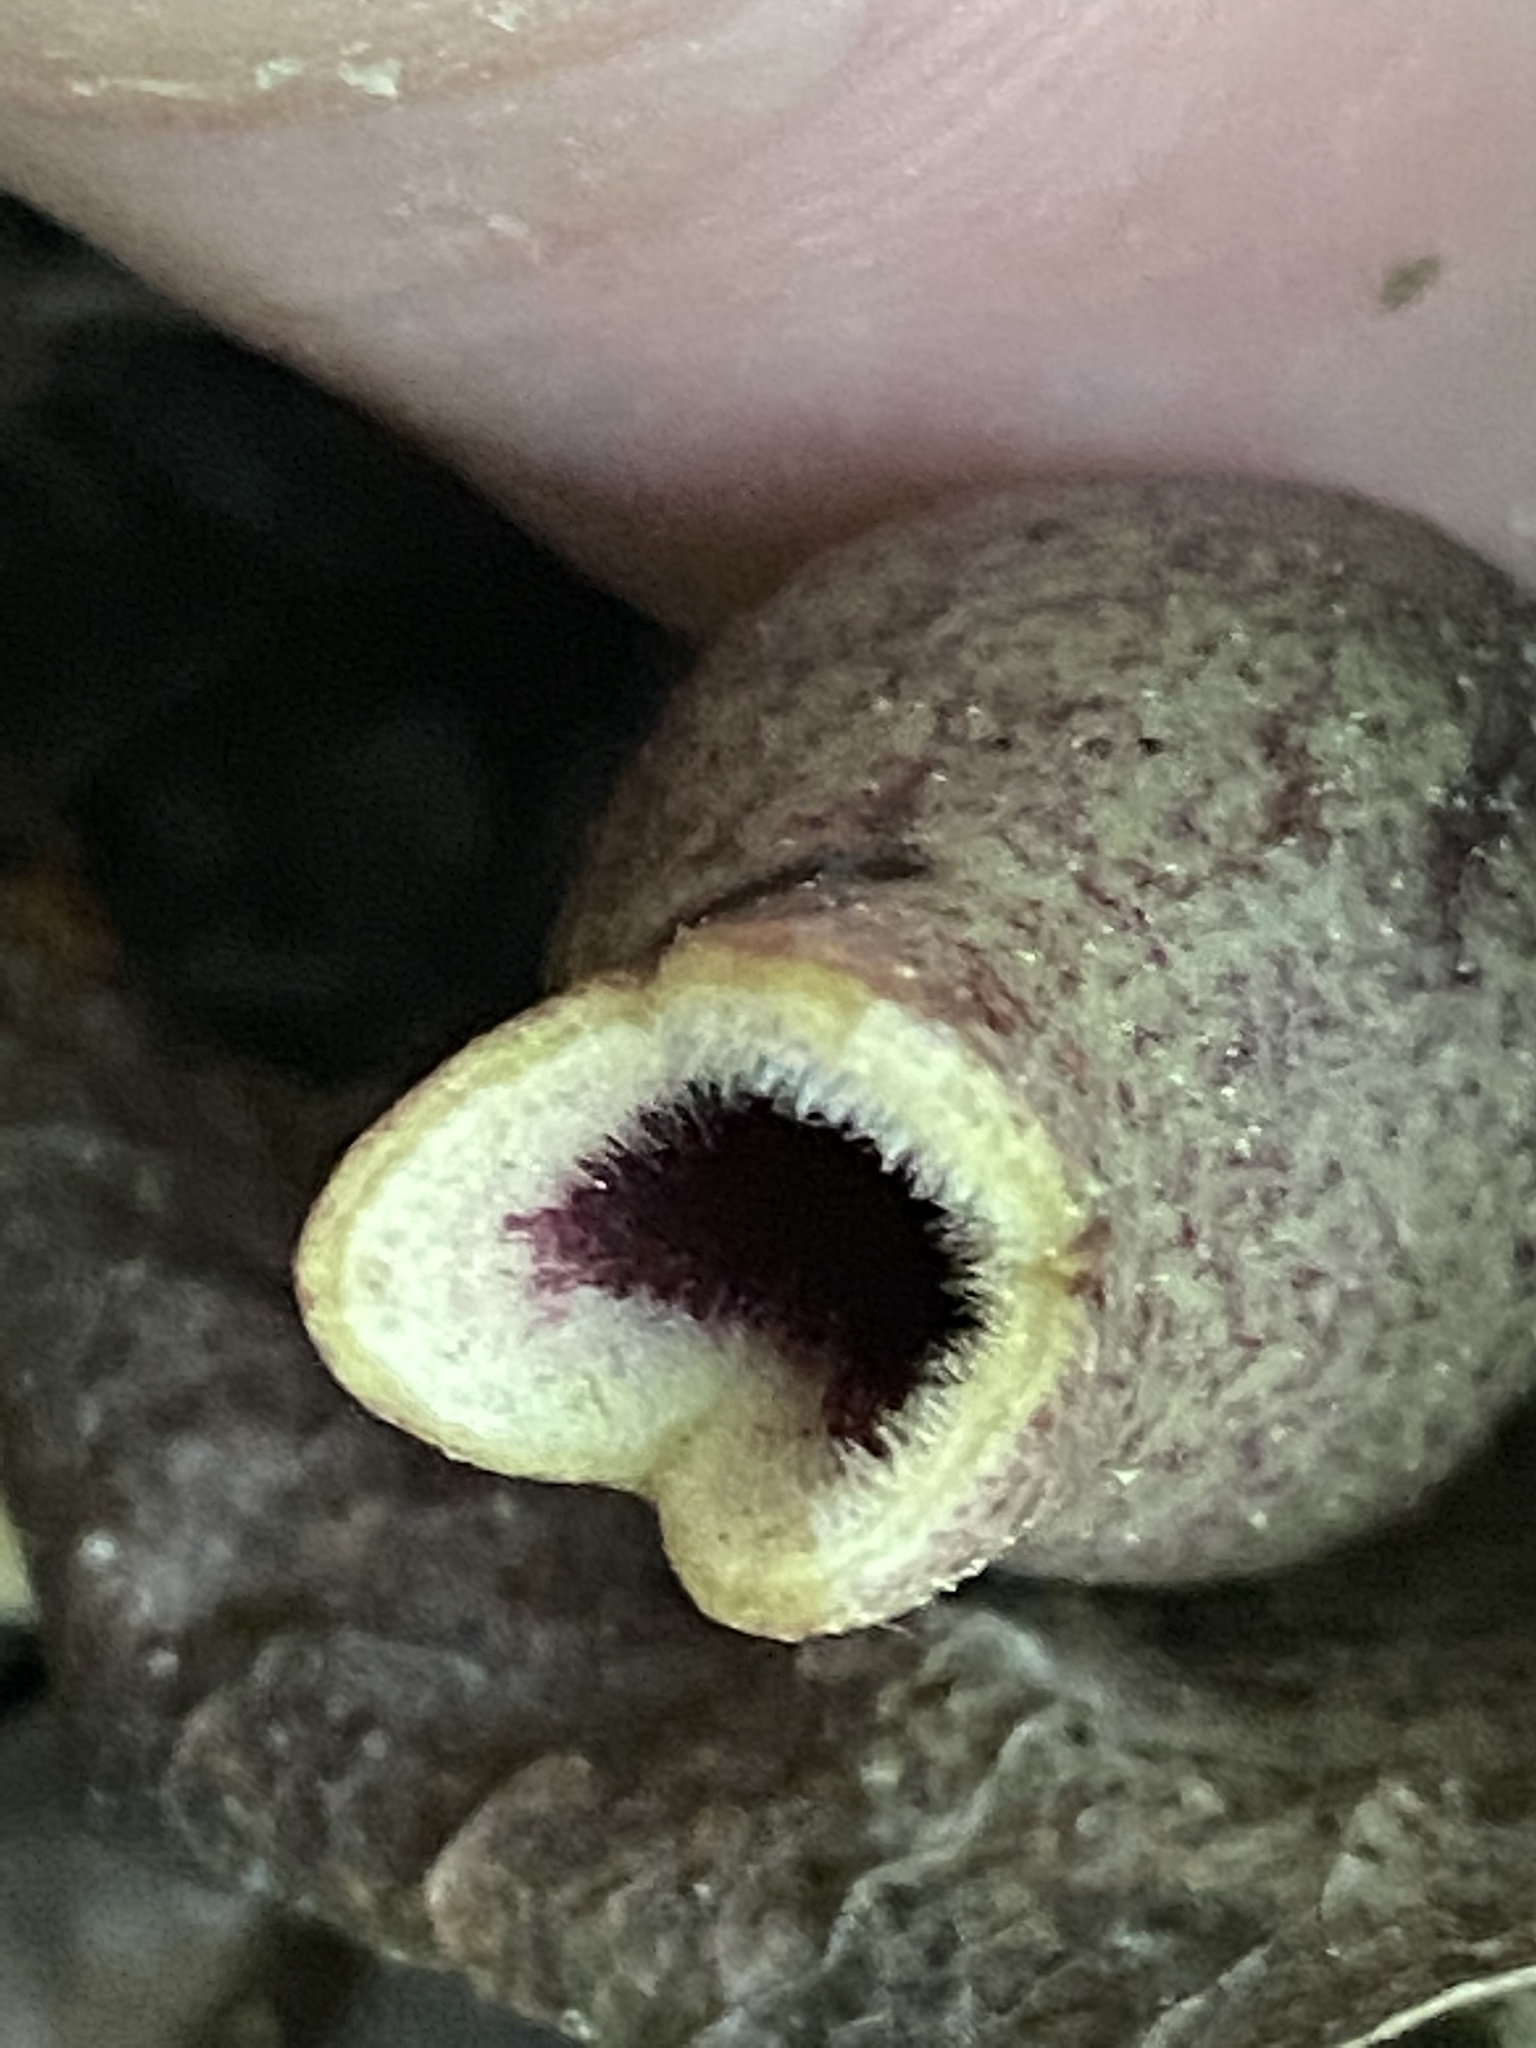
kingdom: Plantae
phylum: Tracheophyta
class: Magnoliopsida
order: Piperales
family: Aristolochiaceae
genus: Hexastylis
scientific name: Hexastylis arifolia
